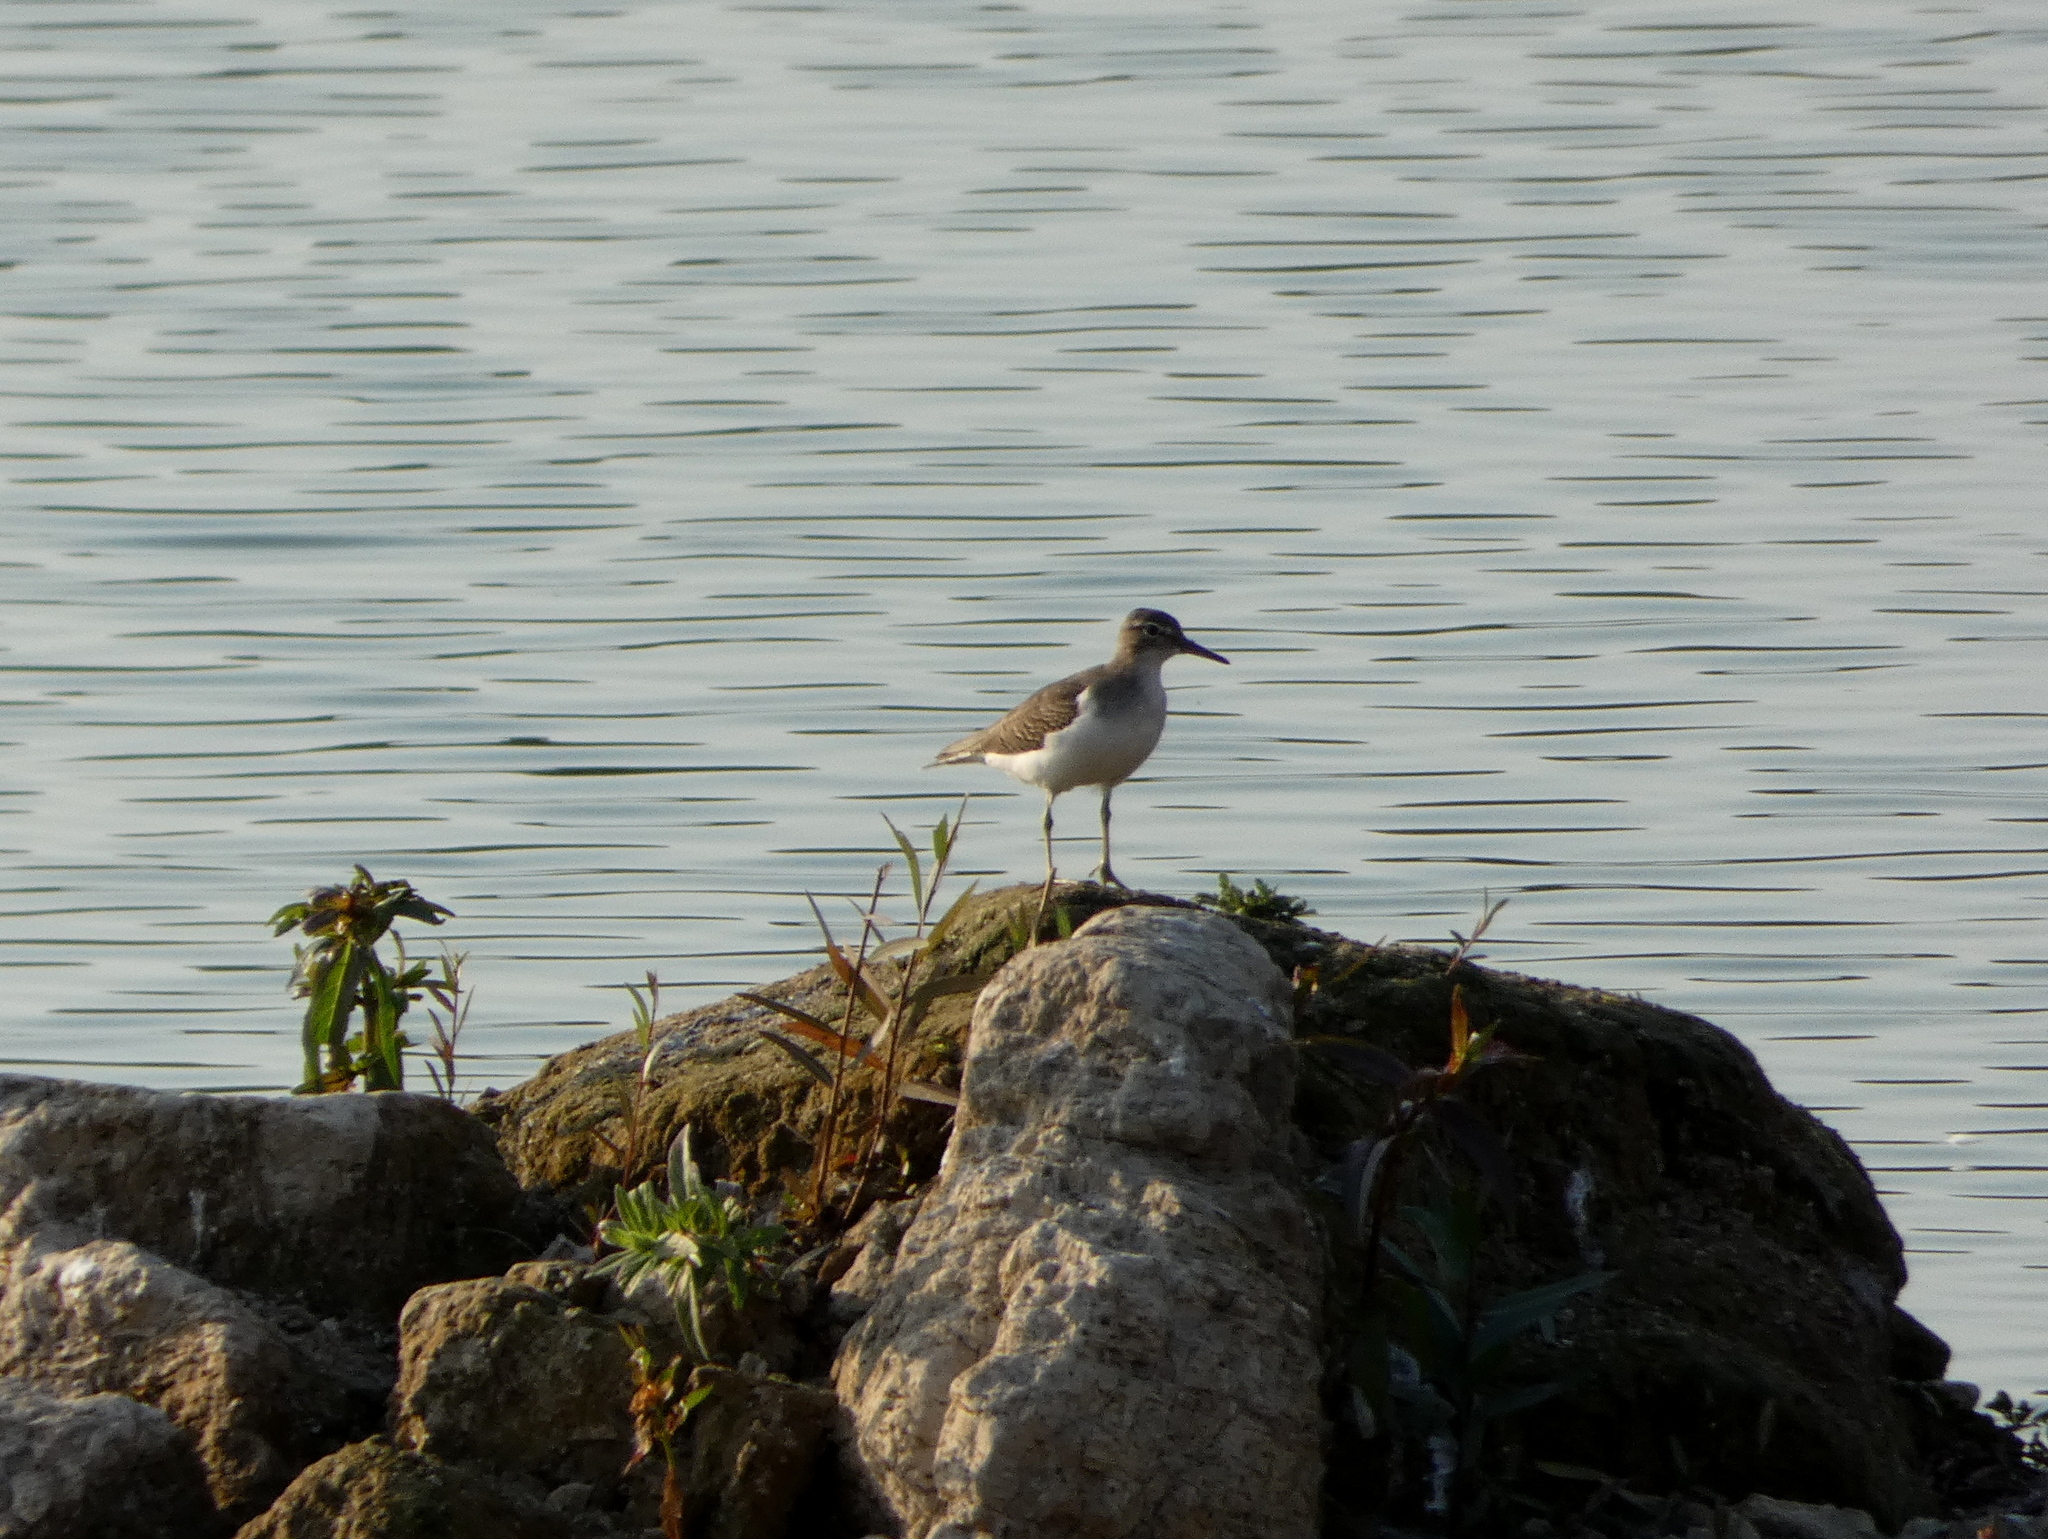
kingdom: Animalia
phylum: Chordata
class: Aves
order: Charadriiformes
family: Scolopacidae
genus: Actitis
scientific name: Actitis macularius
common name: Spotted sandpiper
